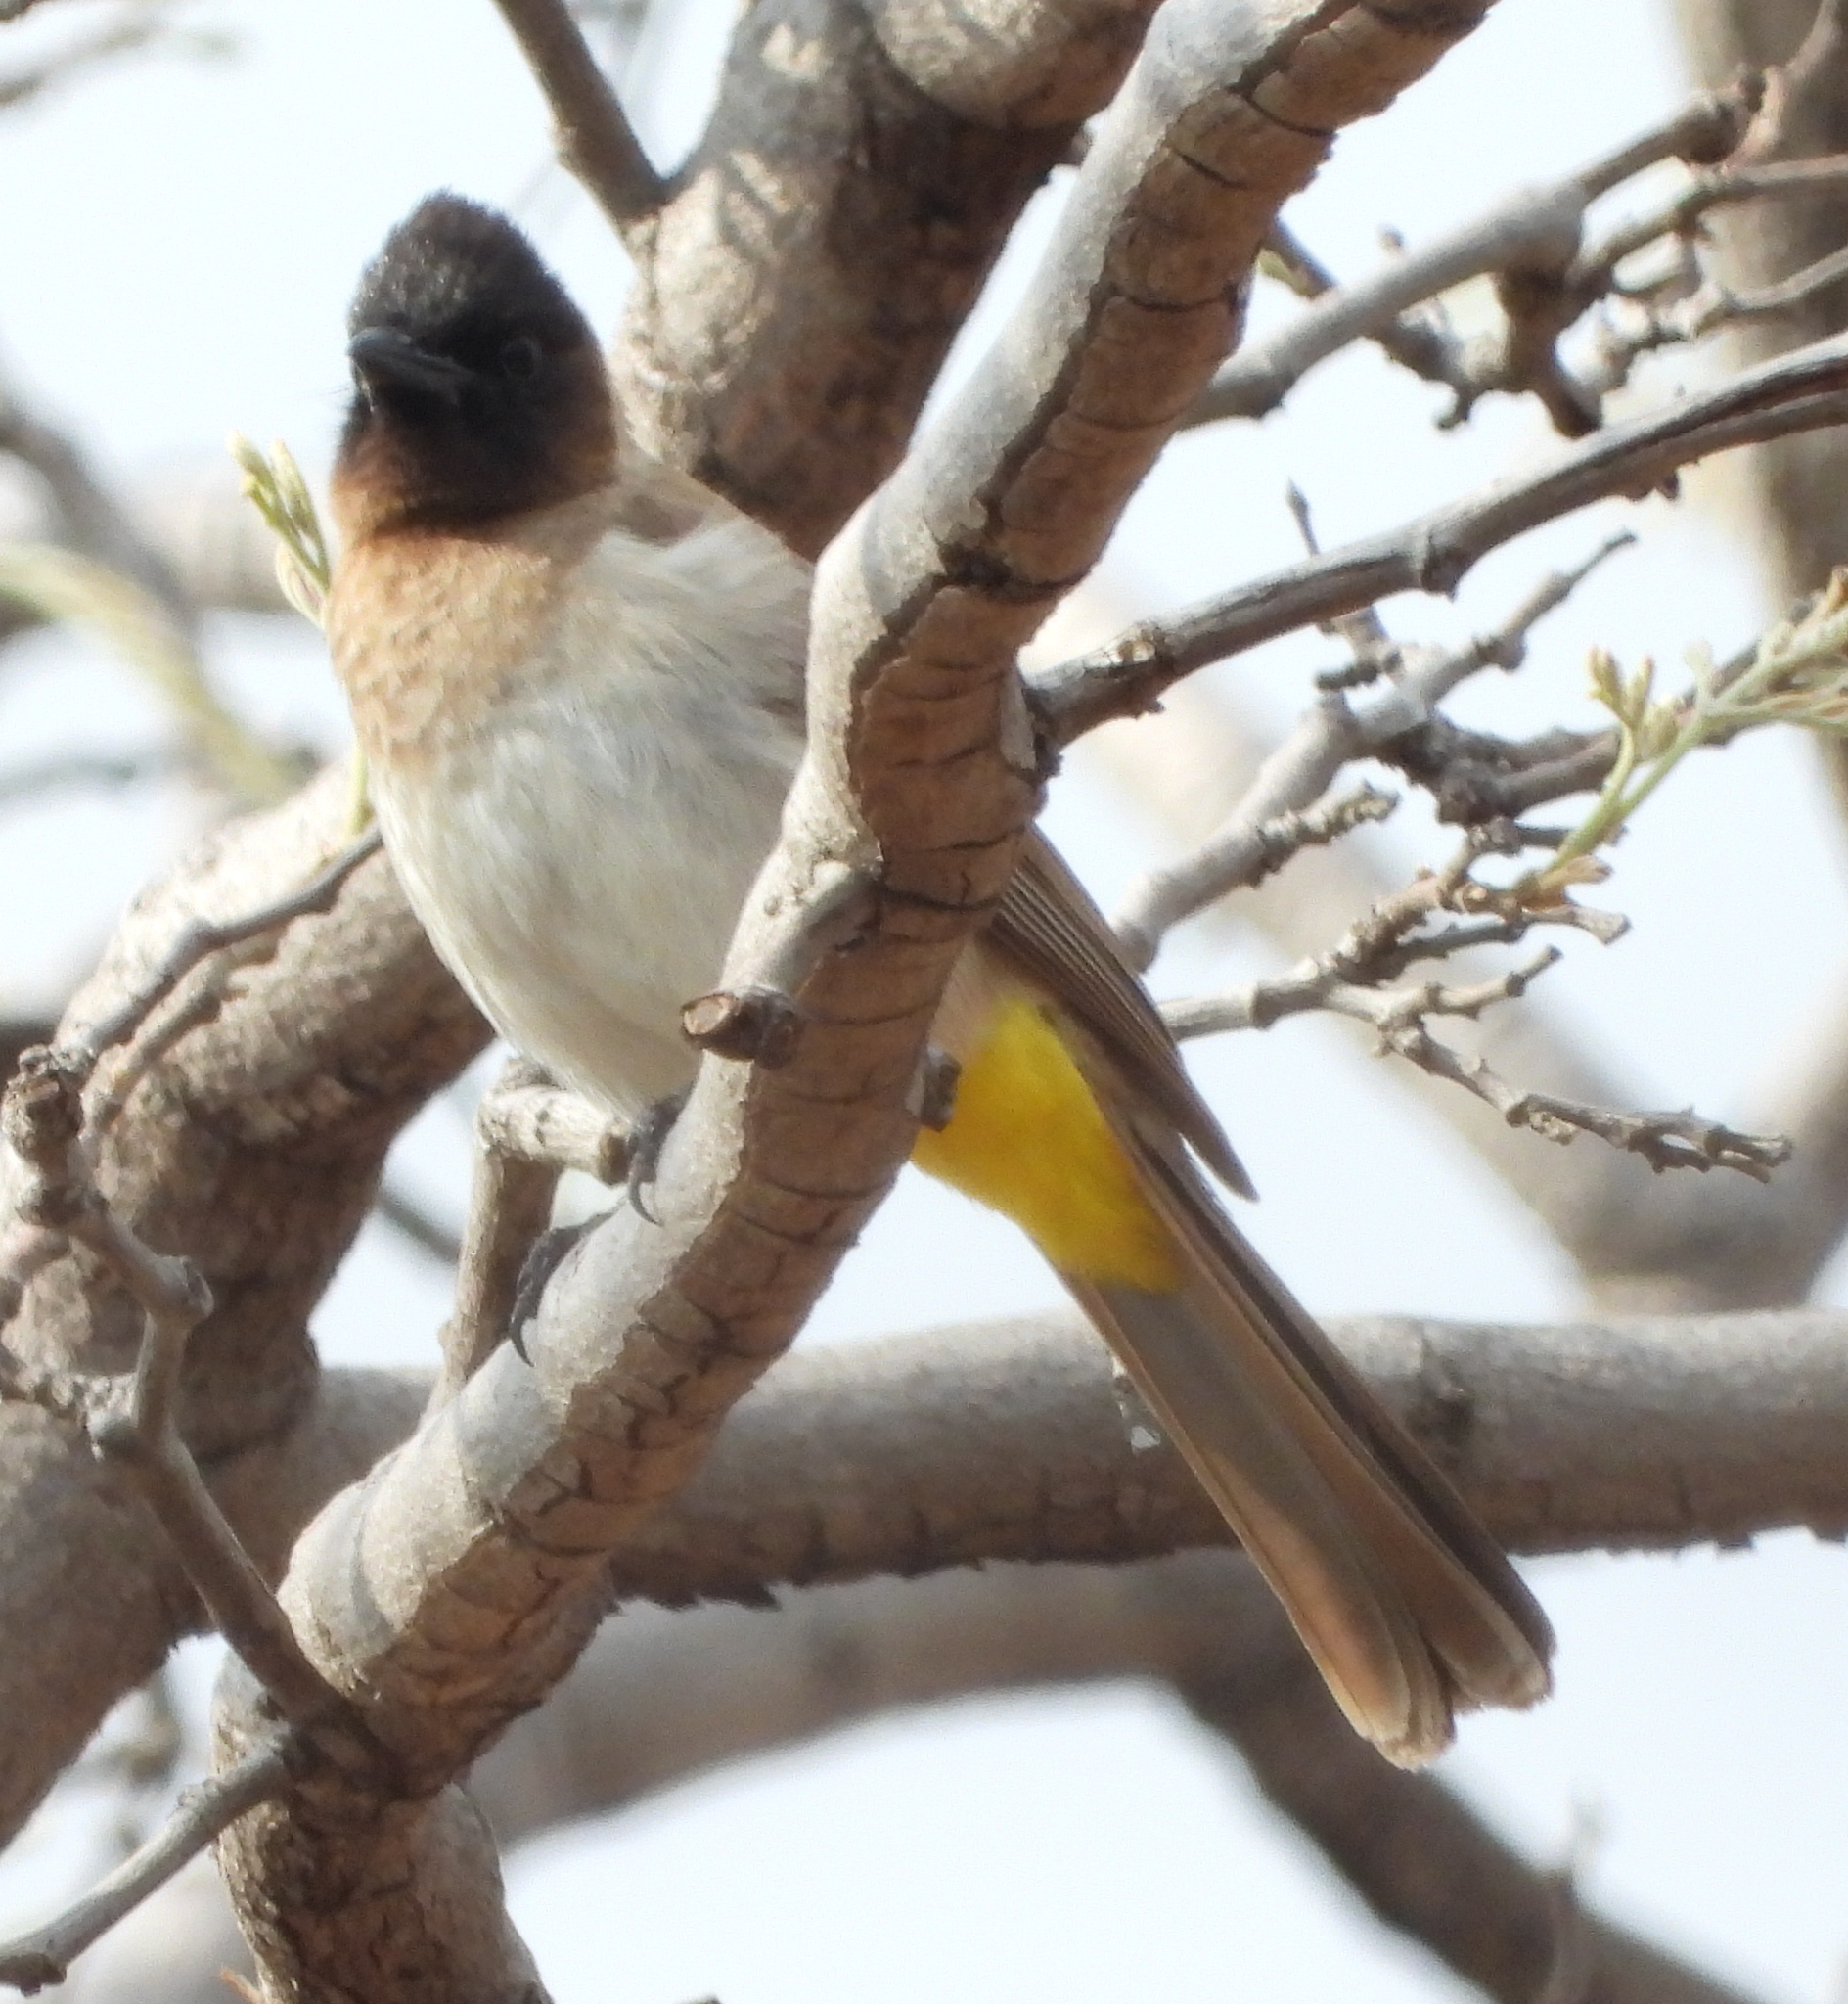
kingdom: Animalia
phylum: Chordata
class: Aves
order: Passeriformes
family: Pycnonotidae
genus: Pycnonotus
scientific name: Pycnonotus barbatus
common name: Common bulbul
